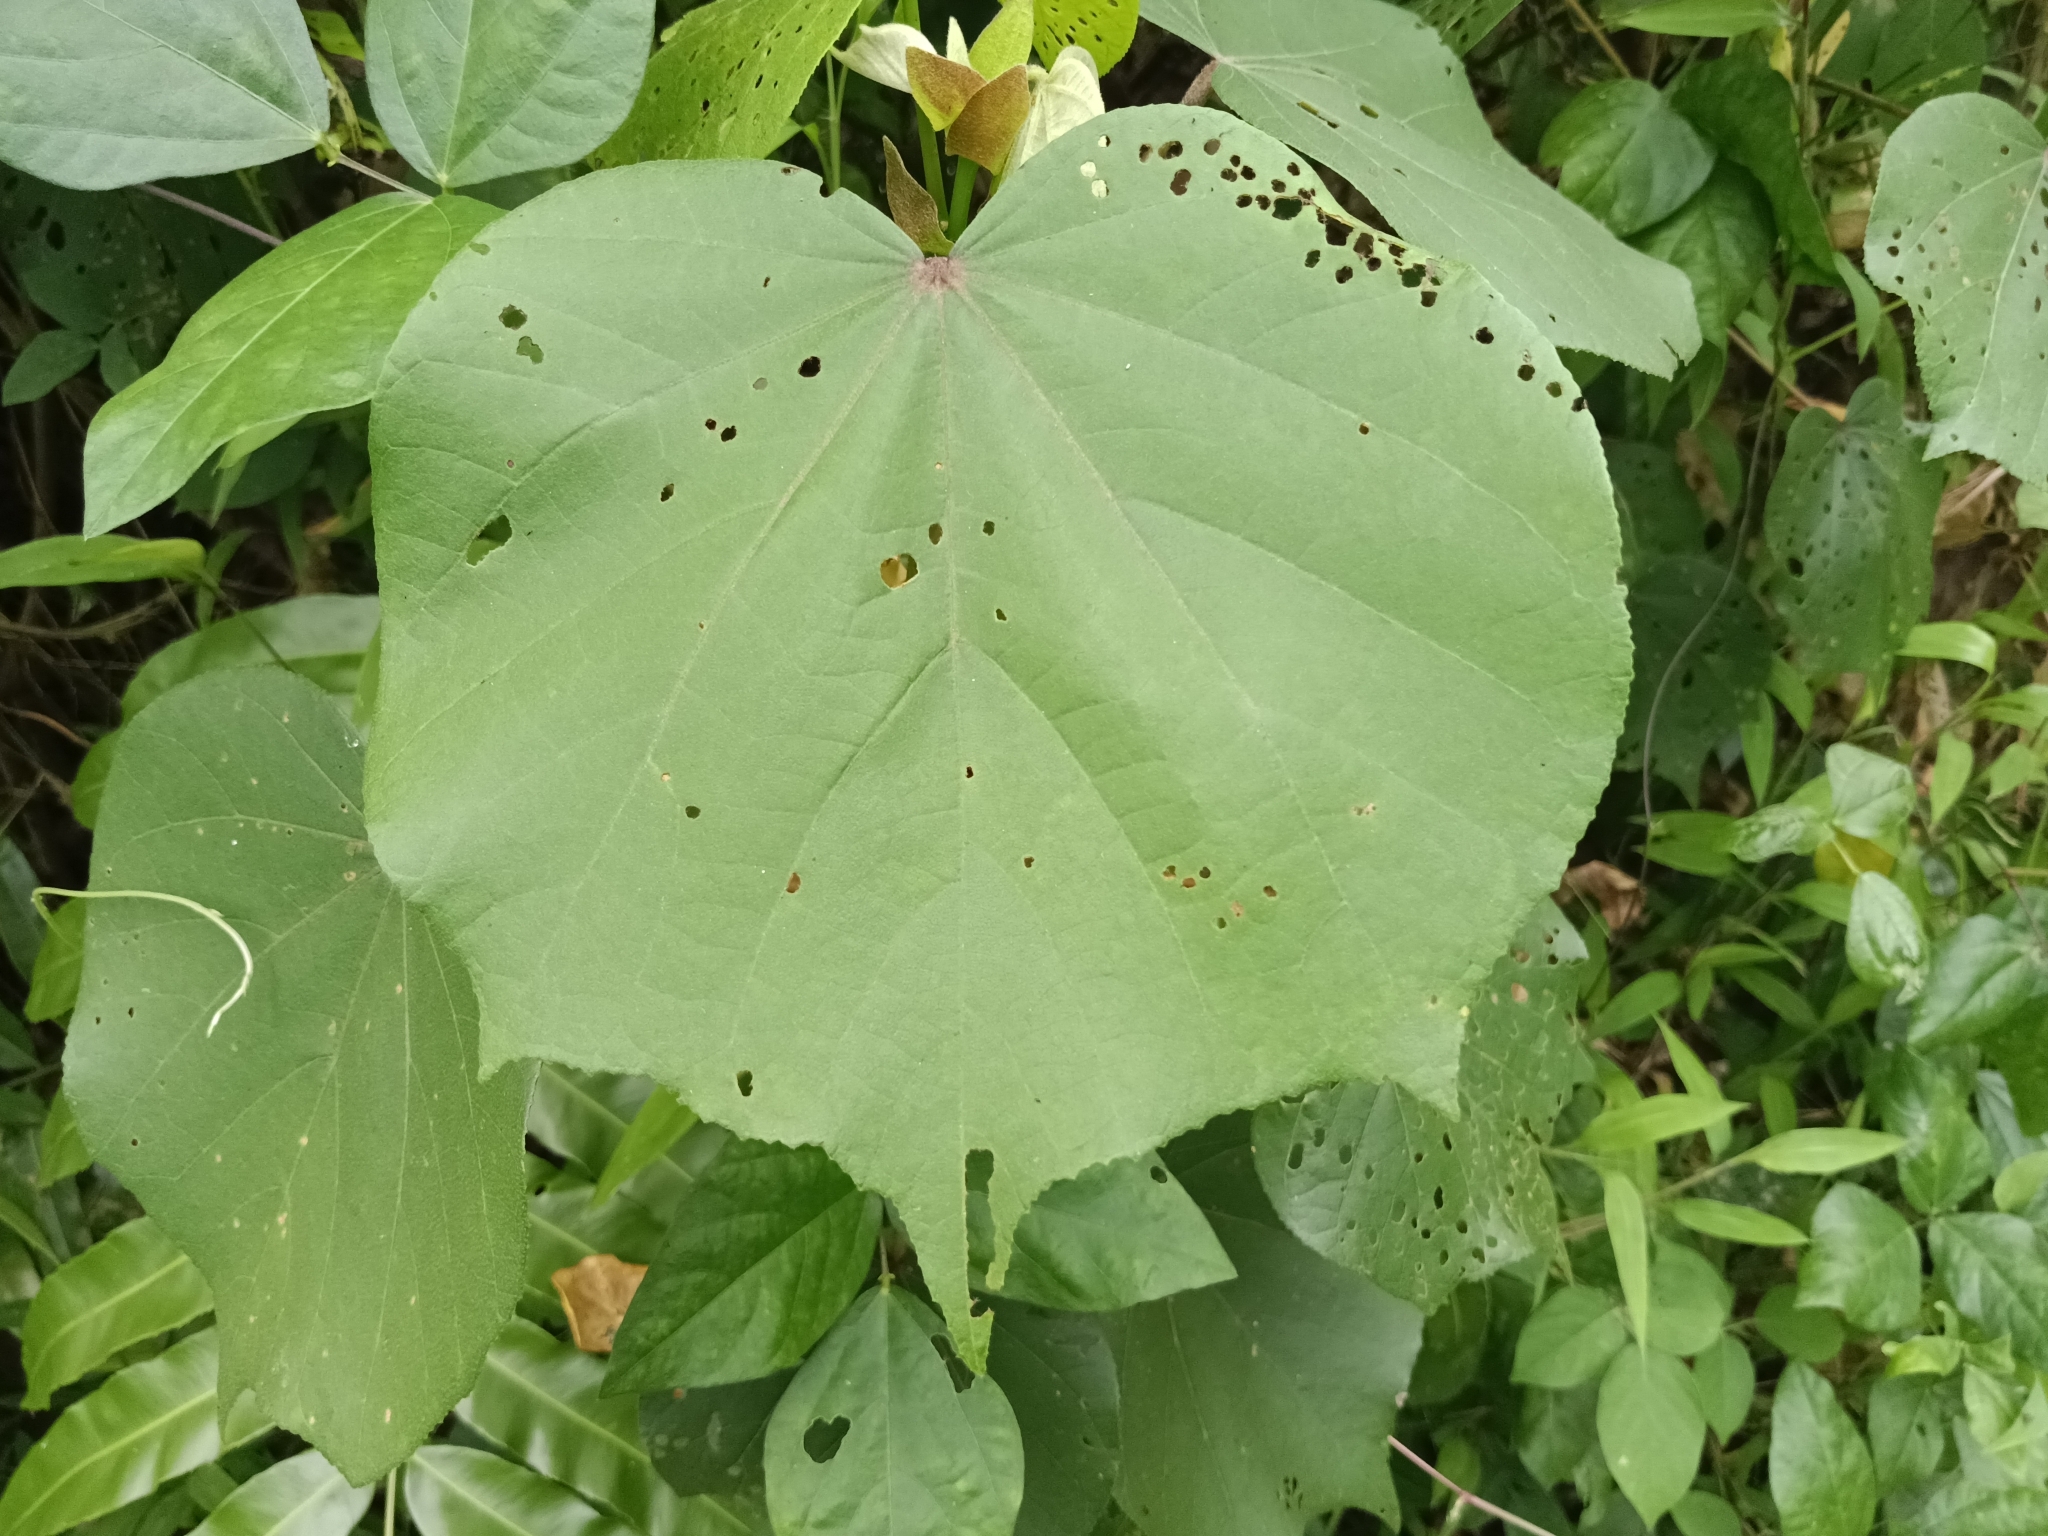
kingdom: Plantae
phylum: Tracheophyta
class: Magnoliopsida
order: Malvales
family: Malvaceae
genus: Talipariti
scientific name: Talipariti tiliaceum
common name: Sea hibiscus
